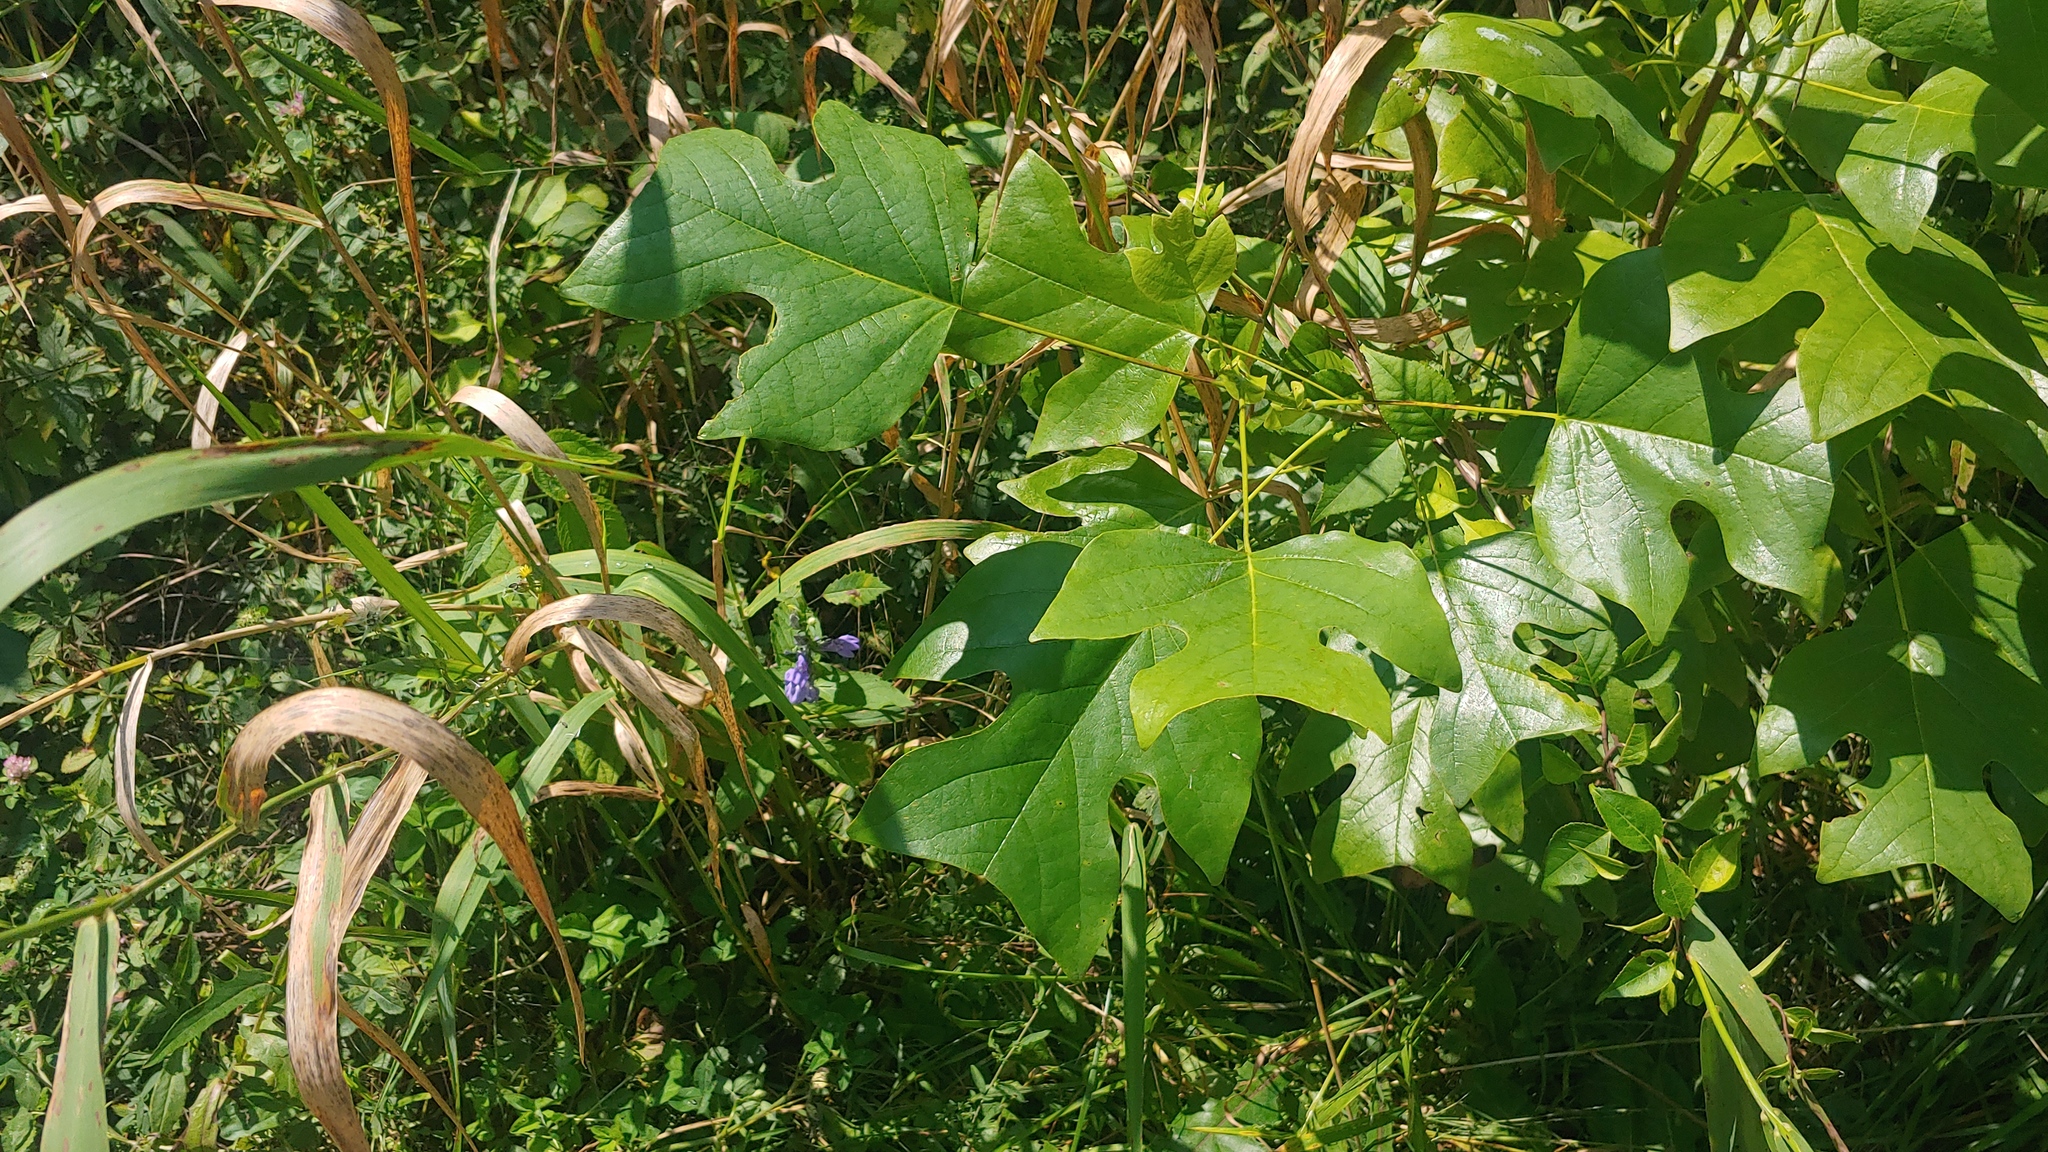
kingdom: Plantae
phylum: Tracheophyta
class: Magnoliopsida
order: Magnoliales
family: Magnoliaceae
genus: Liriodendron
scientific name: Liriodendron tulipifera
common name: Tulip tree
